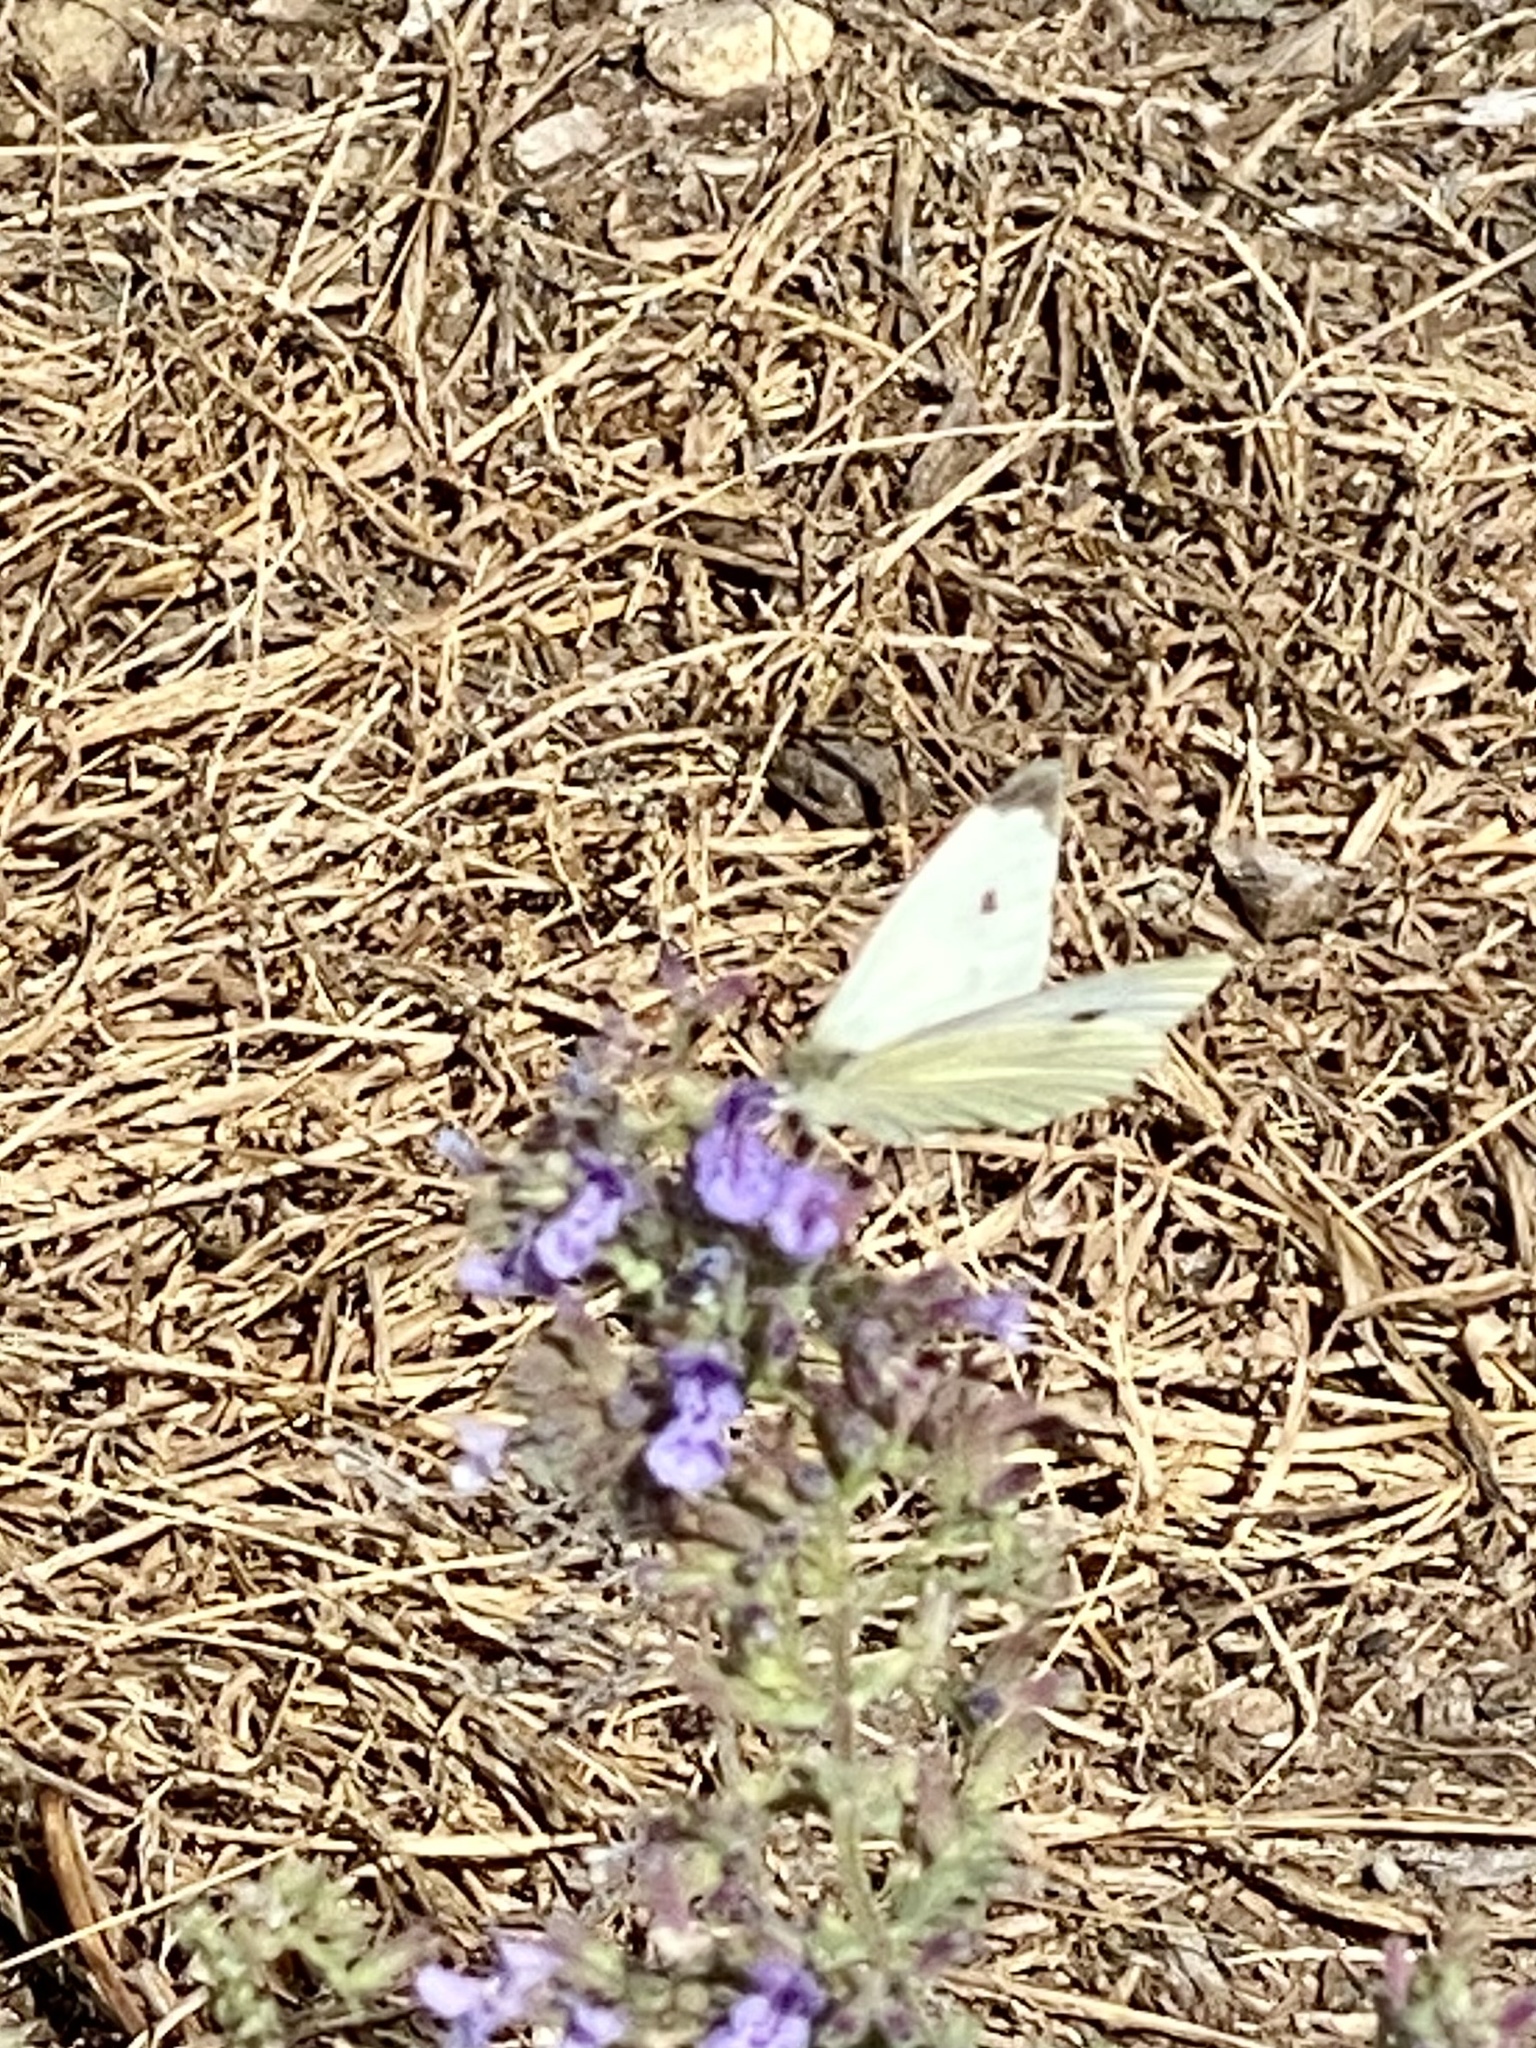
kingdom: Animalia
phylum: Arthropoda
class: Insecta
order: Lepidoptera
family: Pieridae
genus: Pieris
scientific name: Pieris rapae
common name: Small white
